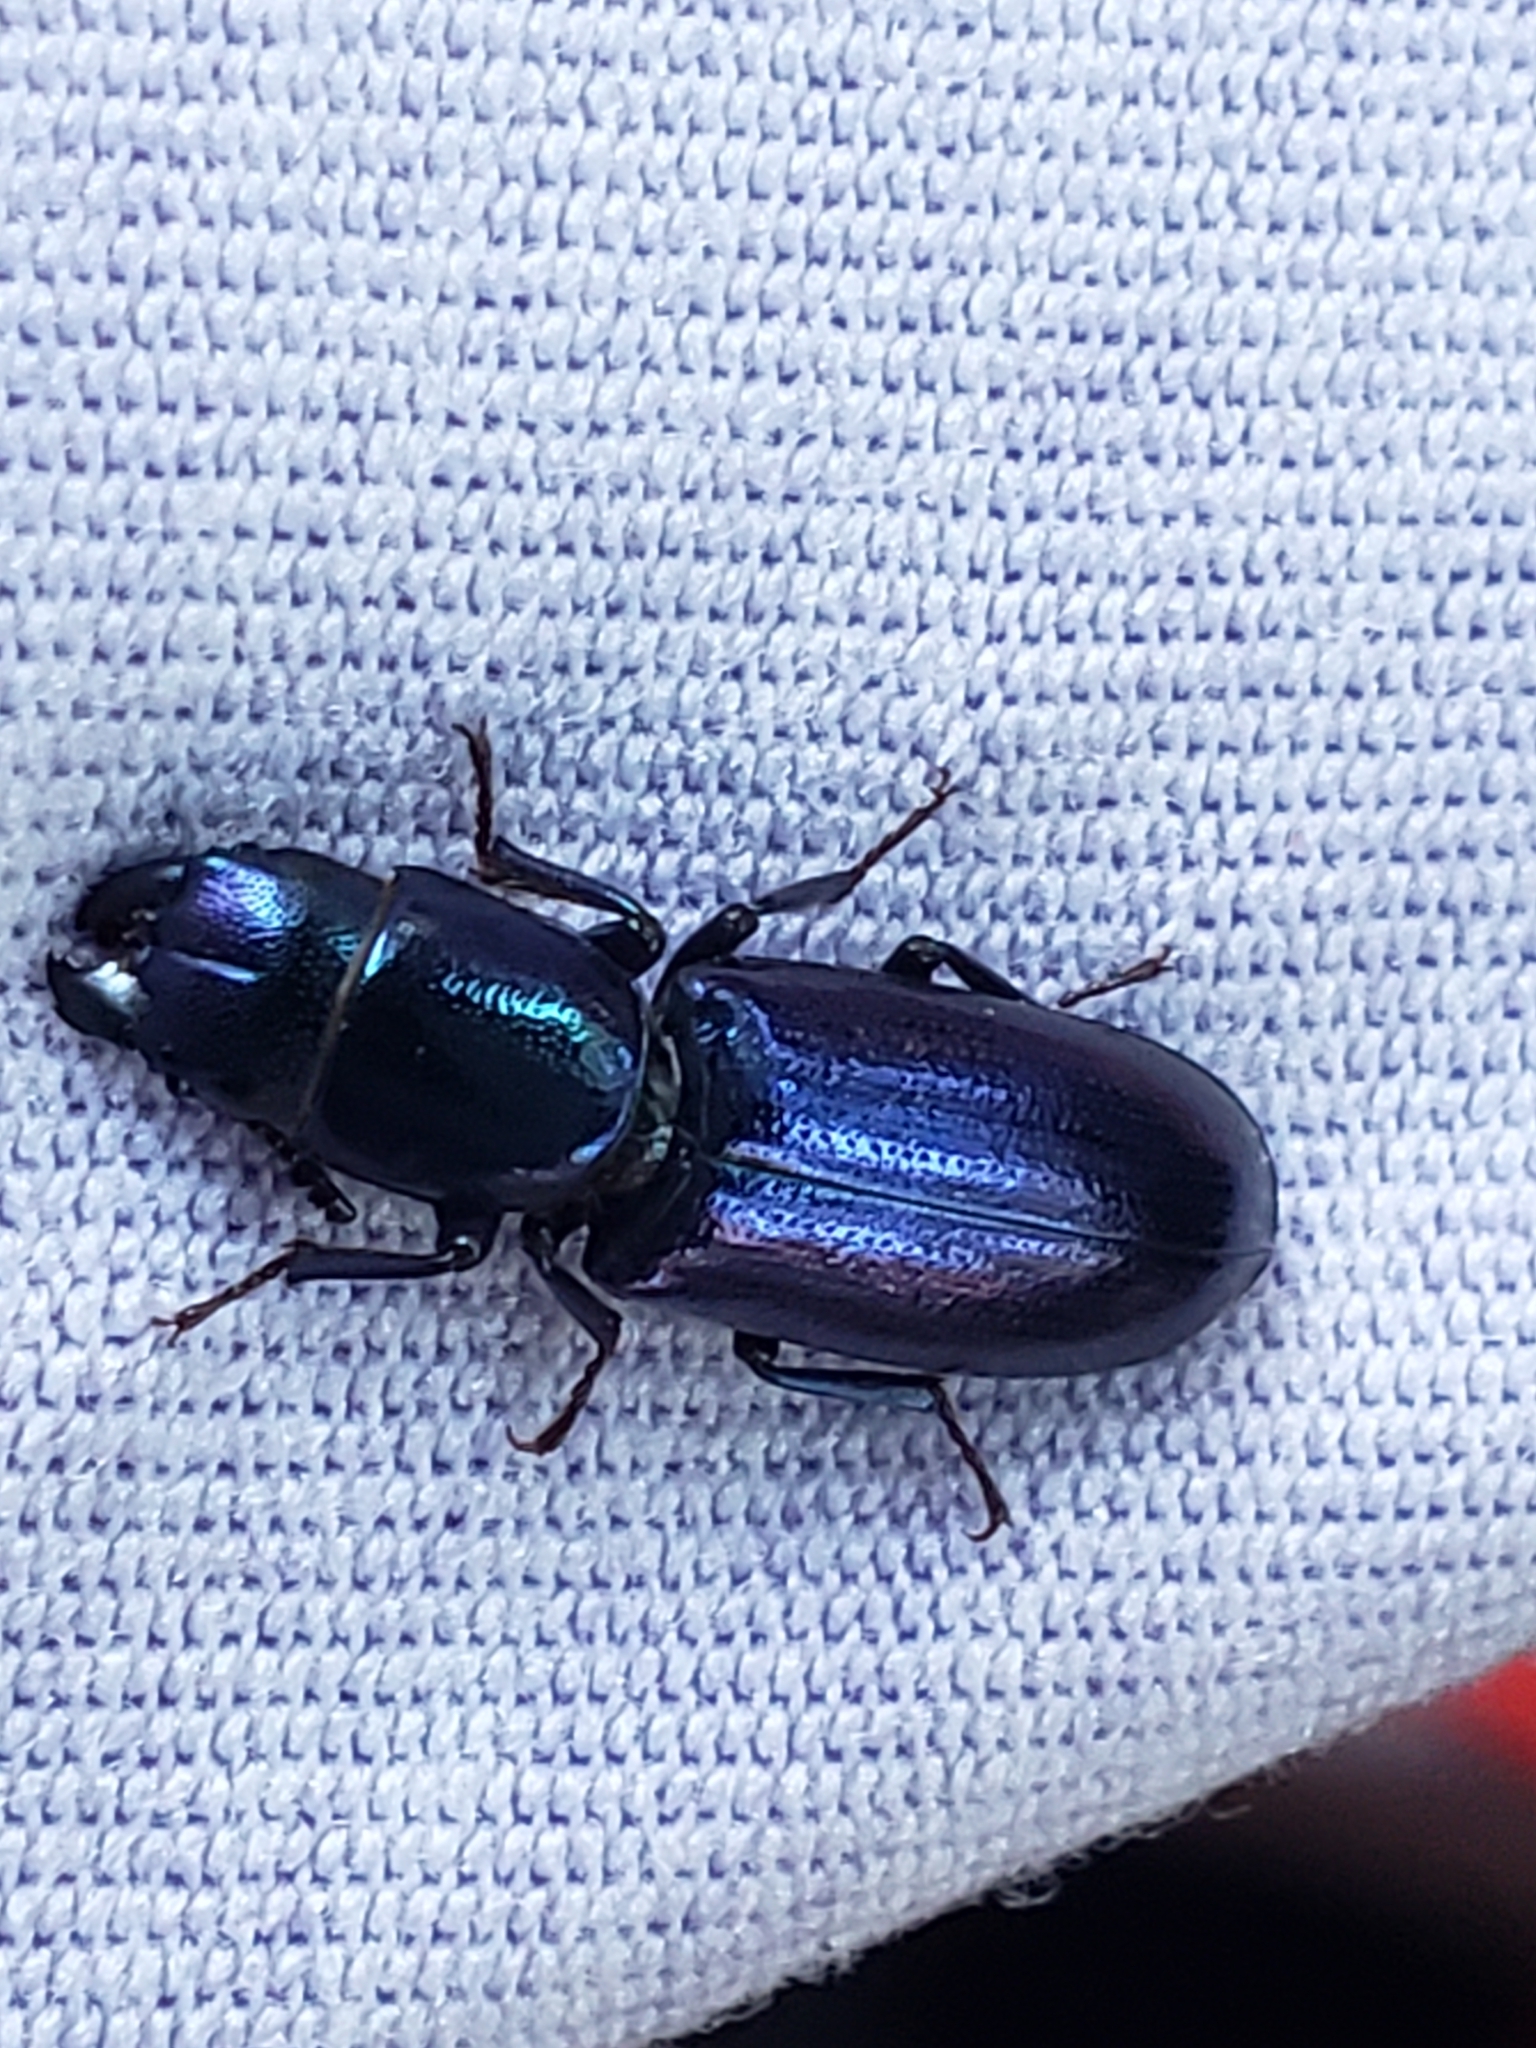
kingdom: Animalia
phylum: Arthropoda
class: Insecta
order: Coleoptera
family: Trogossitidae
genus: Temnoscheila
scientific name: Temnoscheila chlorodia
